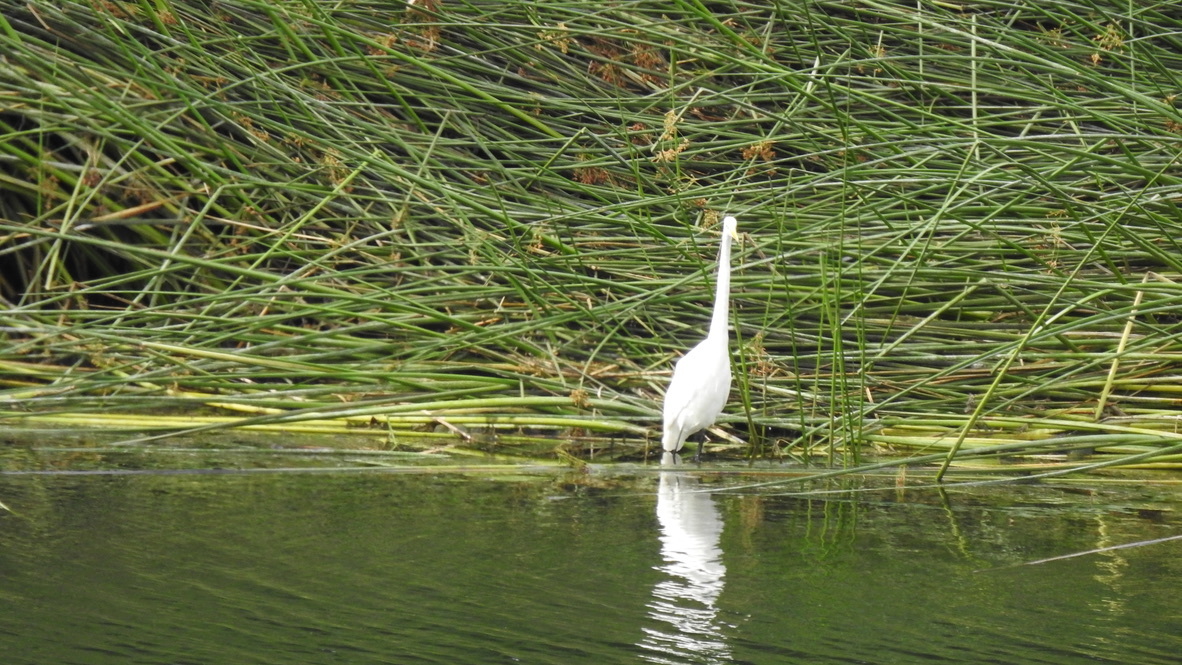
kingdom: Animalia
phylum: Chordata
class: Aves
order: Pelecaniformes
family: Ardeidae
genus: Ardea
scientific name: Ardea alba
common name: Great egret
